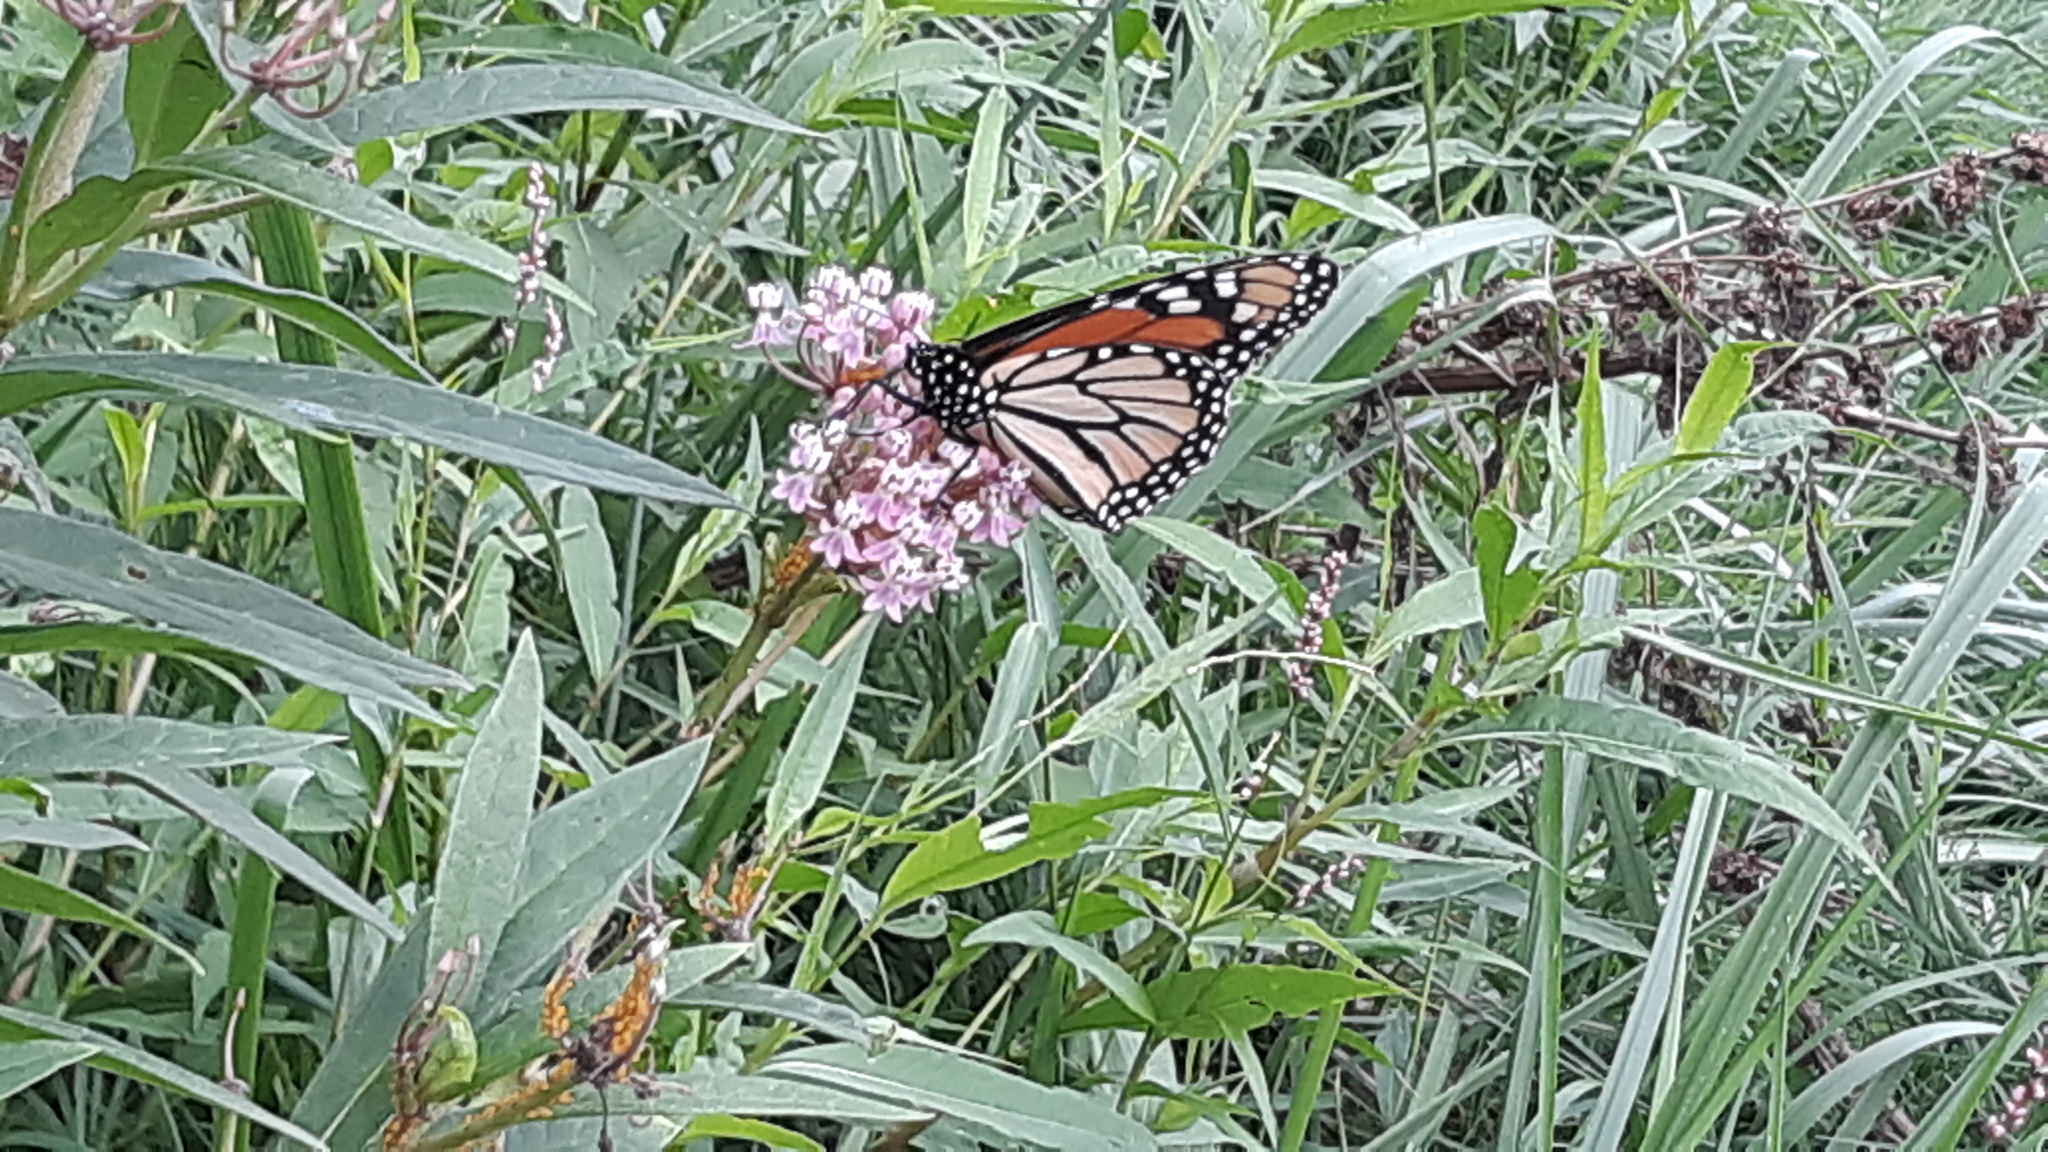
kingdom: Animalia
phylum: Arthropoda
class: Insecta
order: Lepidoptera
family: Nymphalidae
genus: Danaus
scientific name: Danaus plexippus
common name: Monarch
